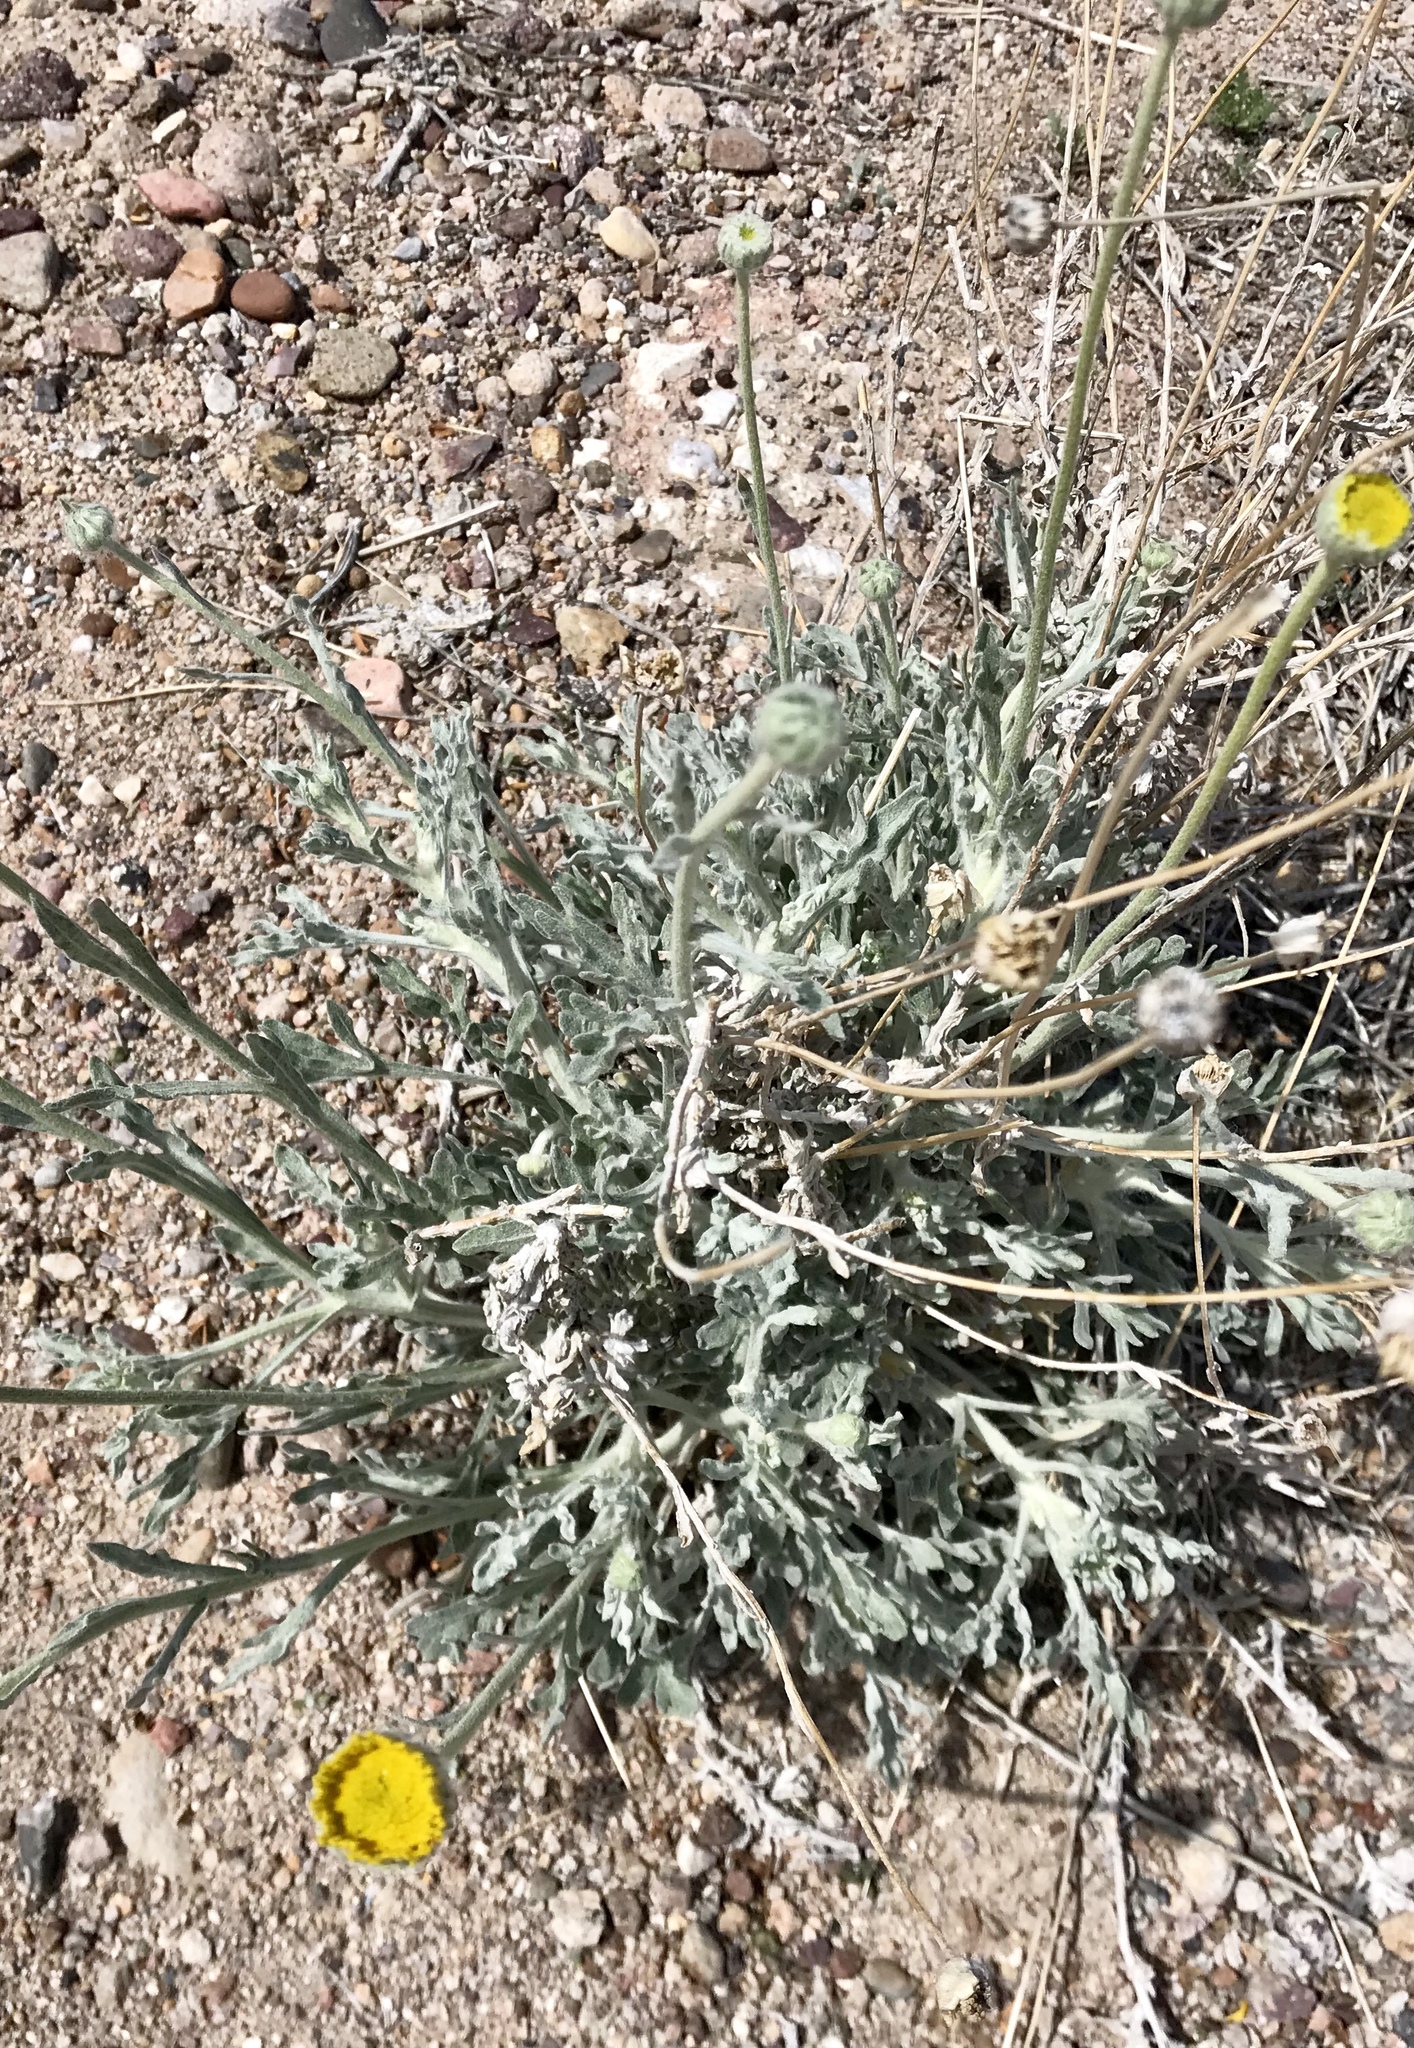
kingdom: Plantae
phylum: Tracheophyta
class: Magnoliopsida
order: Asterales
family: Asteraceae
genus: Baileya
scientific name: Baileya multiradiata
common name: Desert-marigold
